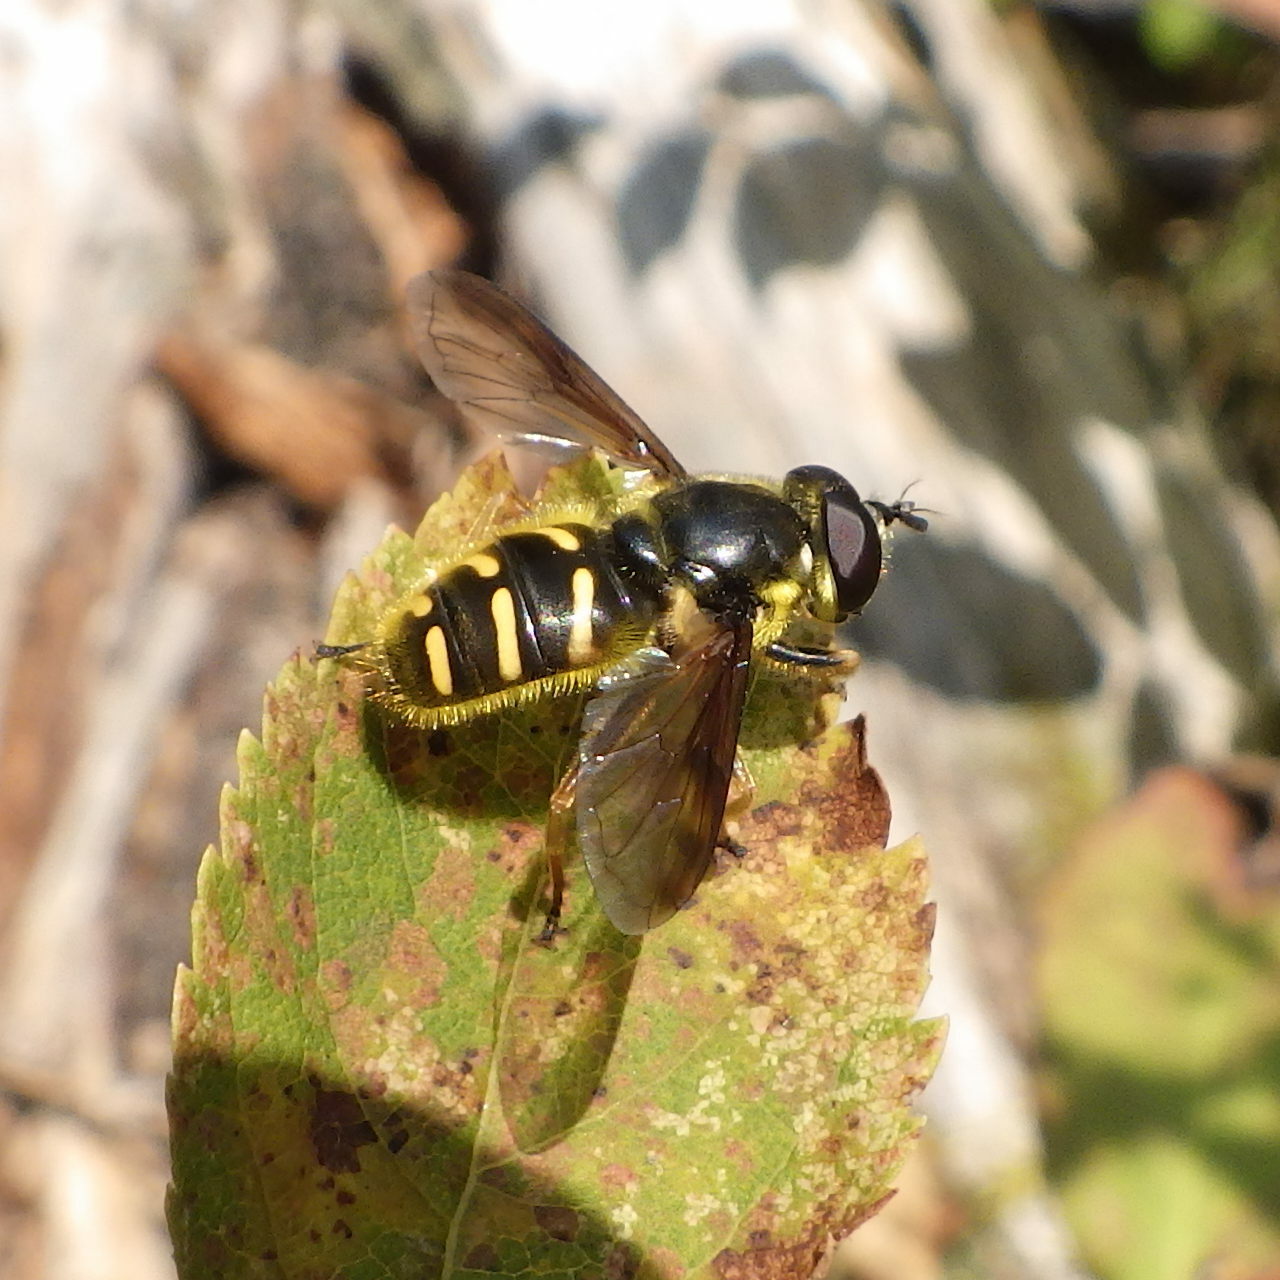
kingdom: Animalia
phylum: Arthropoda
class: Insecta
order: Diptera
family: Syrphidae
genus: Sericomyia
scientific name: Sericomyia chrysotoxoides
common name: Oblique-banded pond fly
